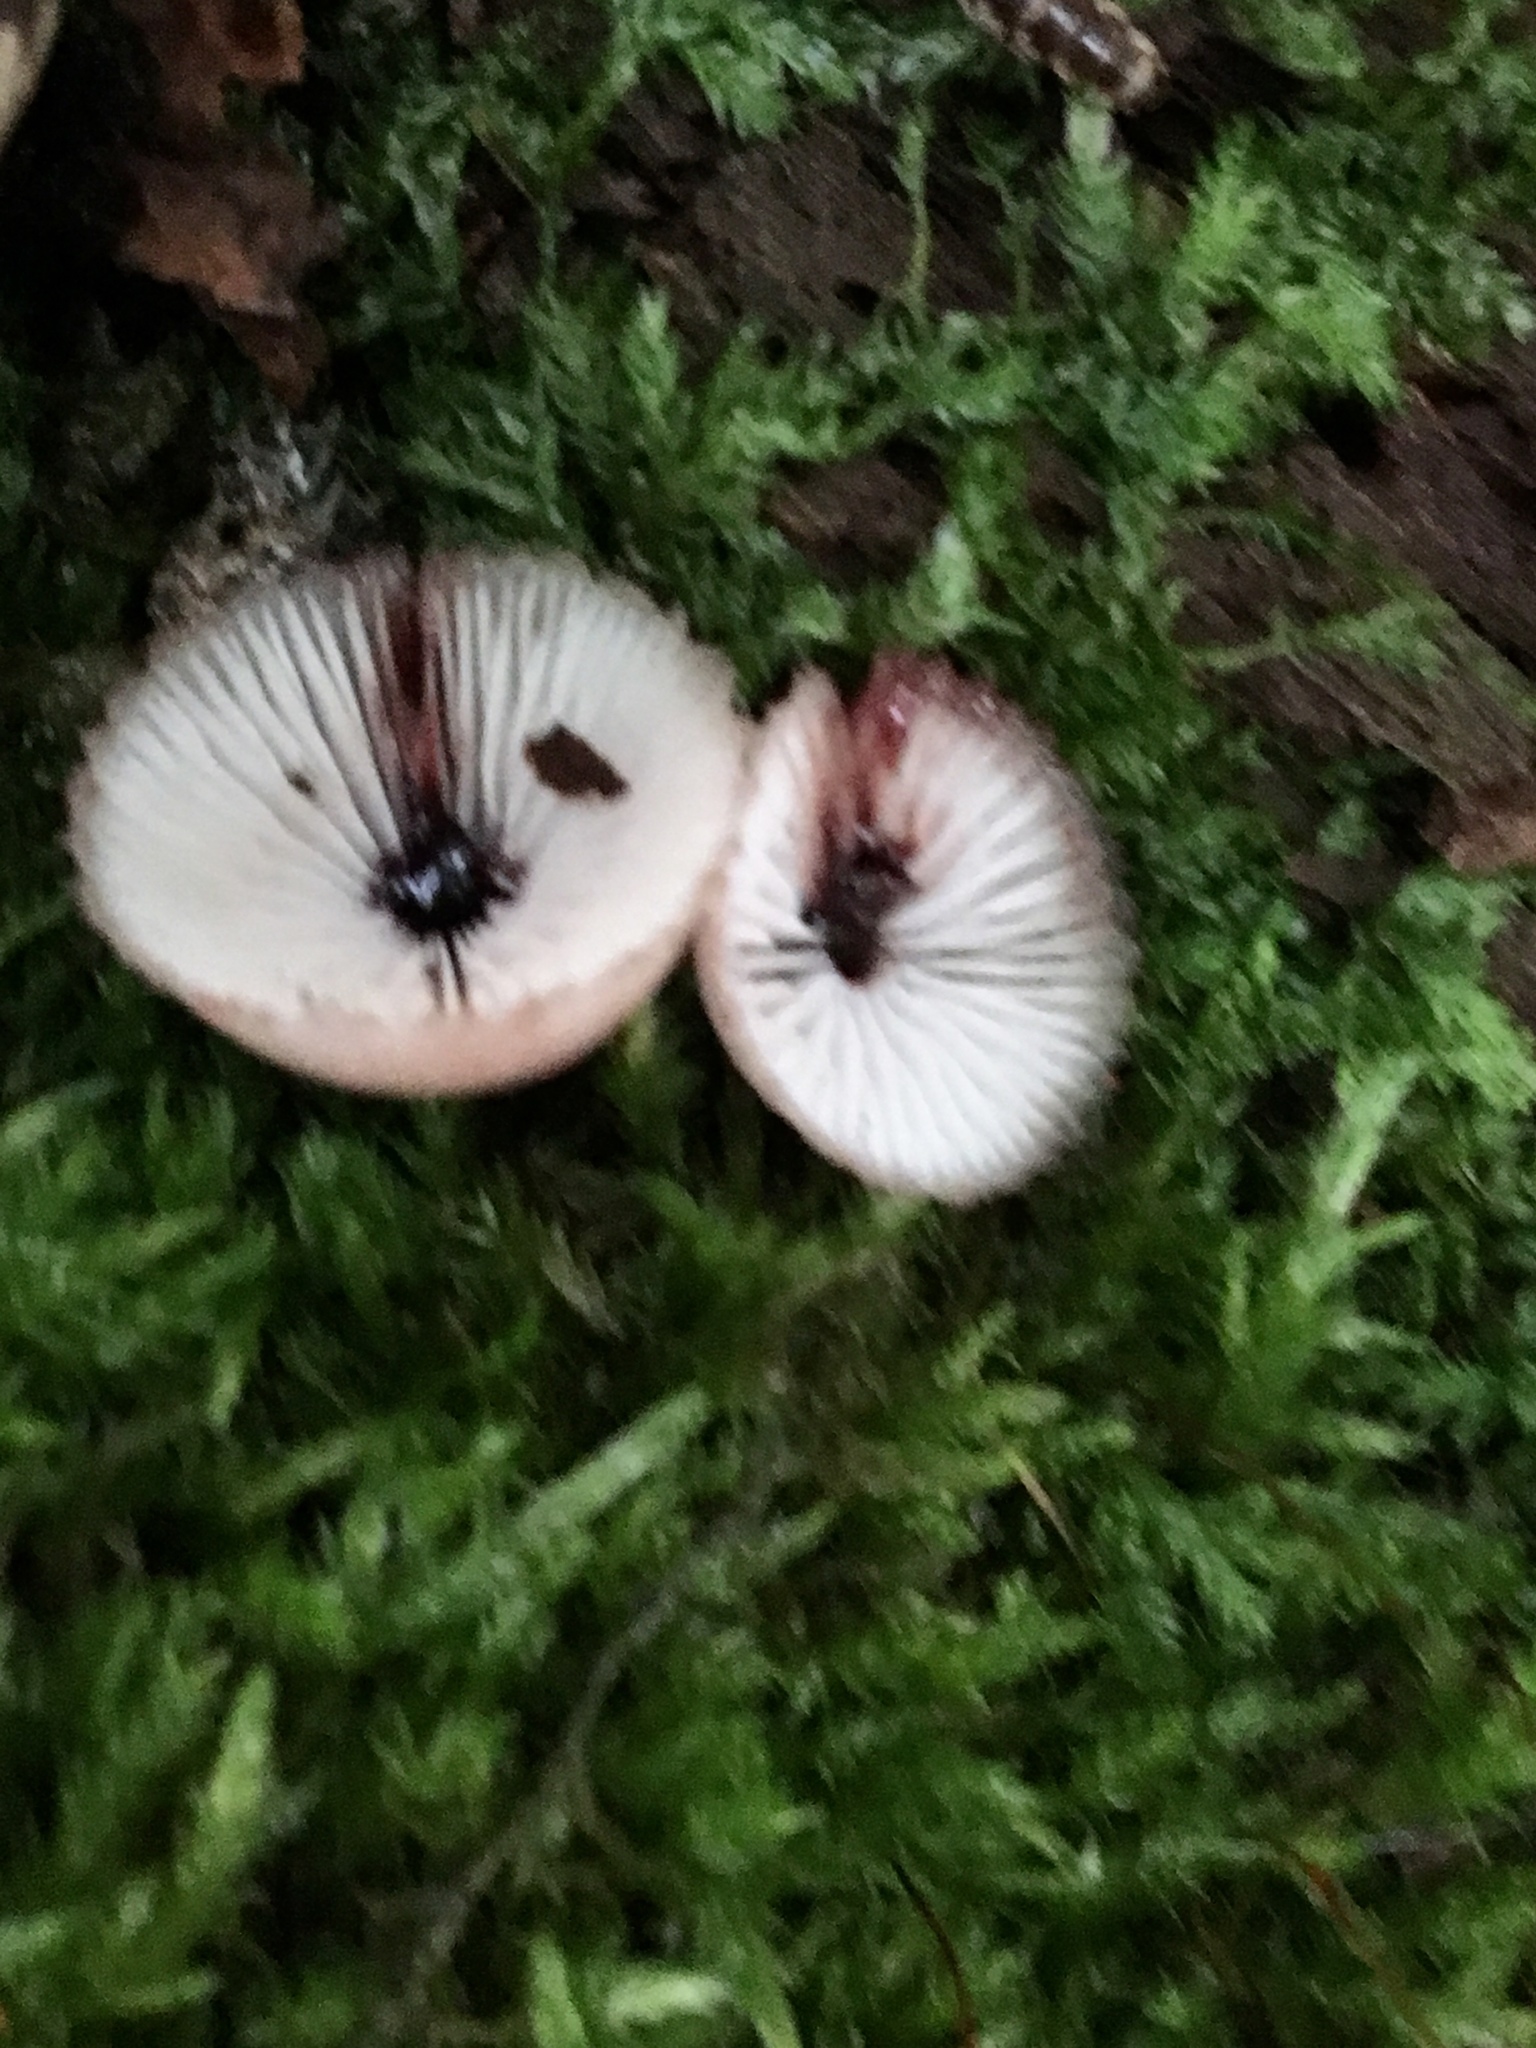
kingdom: Fungi
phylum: Basidiomycota
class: Agaricomycetes
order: Agaricales
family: Mycenaceae
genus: Mycena
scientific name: Mycena haematopus
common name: Burgundydrop bonnet
